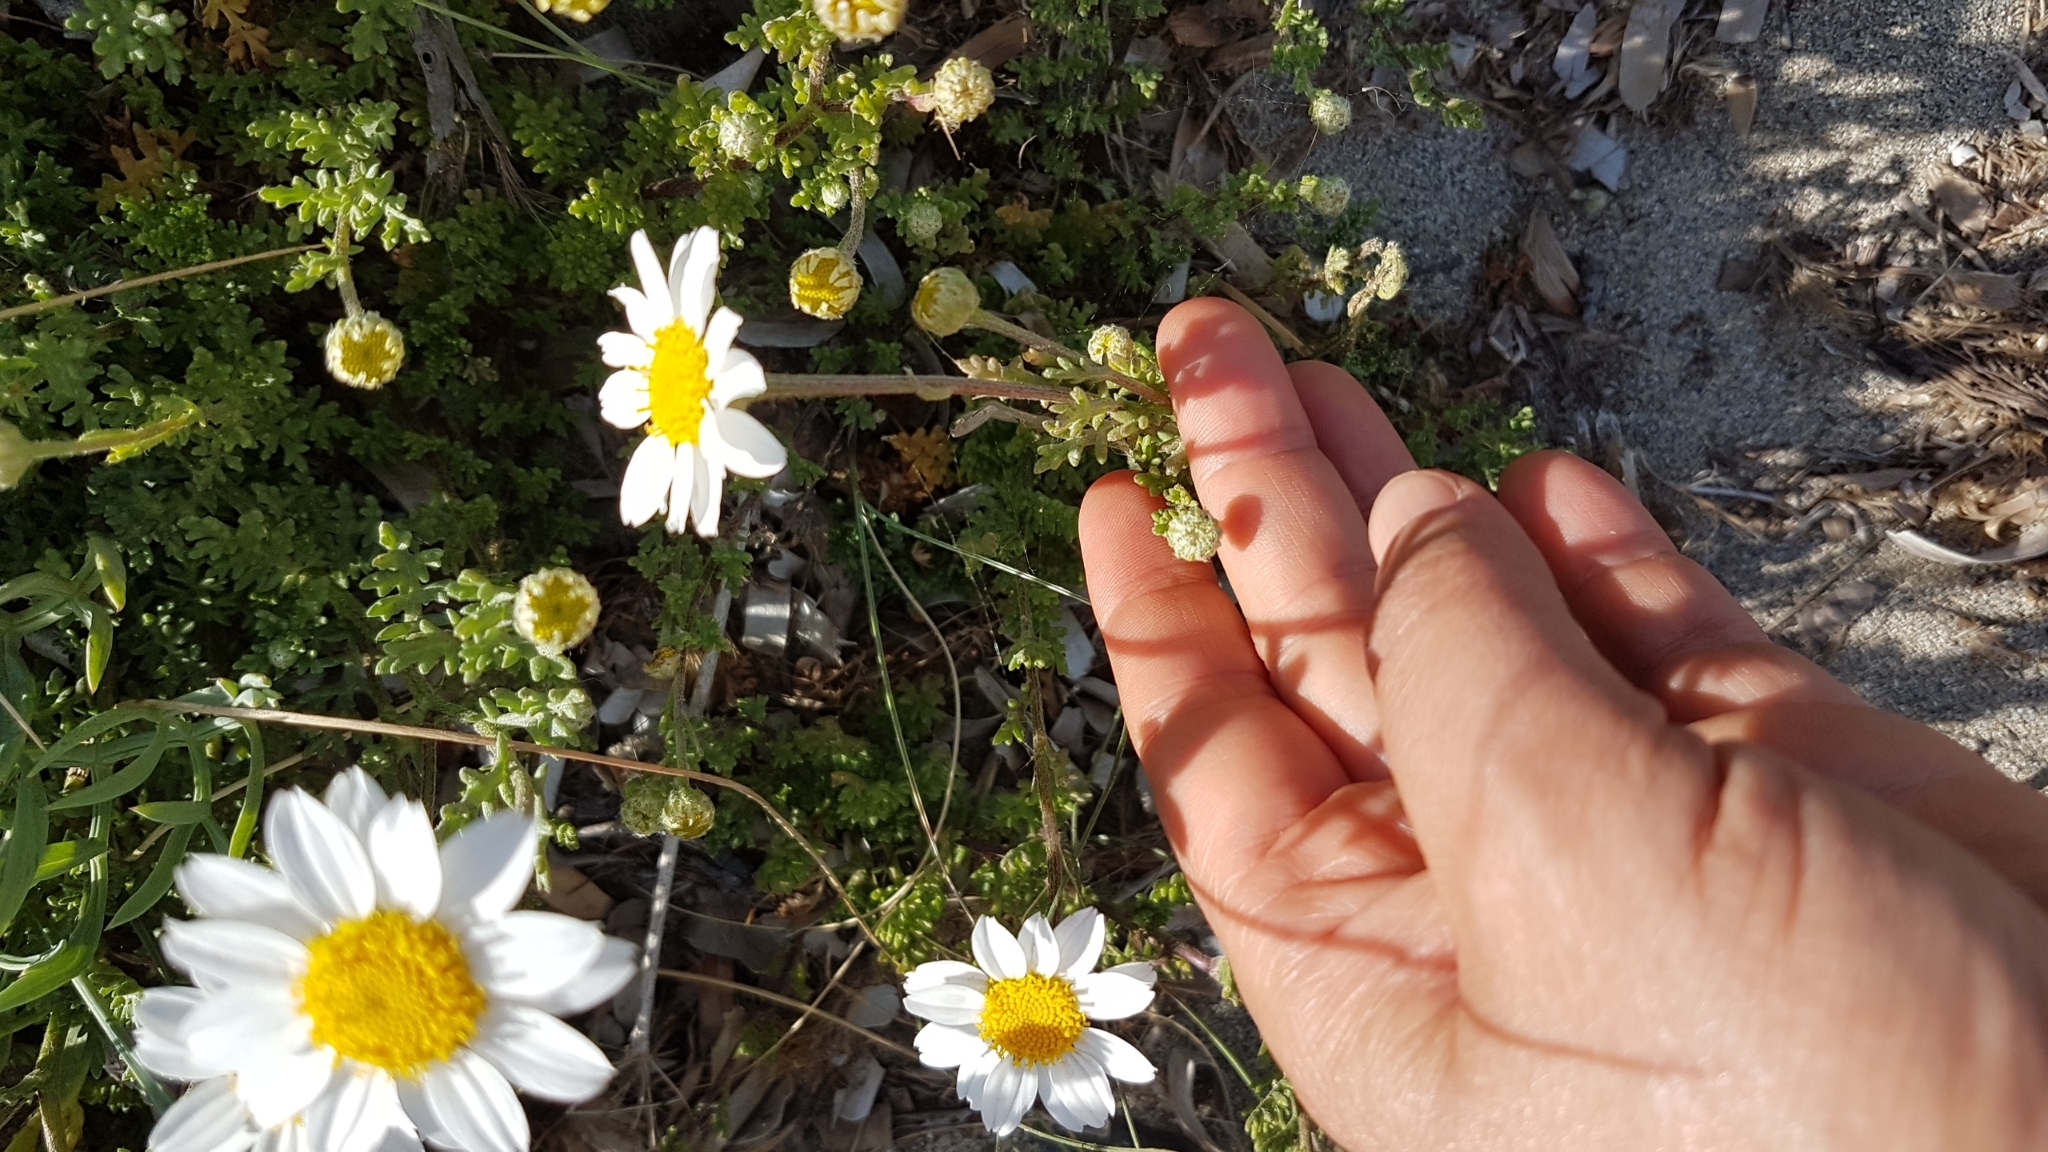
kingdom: Plantae
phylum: Tracheophyta
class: Magnoliopsida
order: Asterales
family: Asteraceae
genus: Anthemis
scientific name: Anthemis maritima
